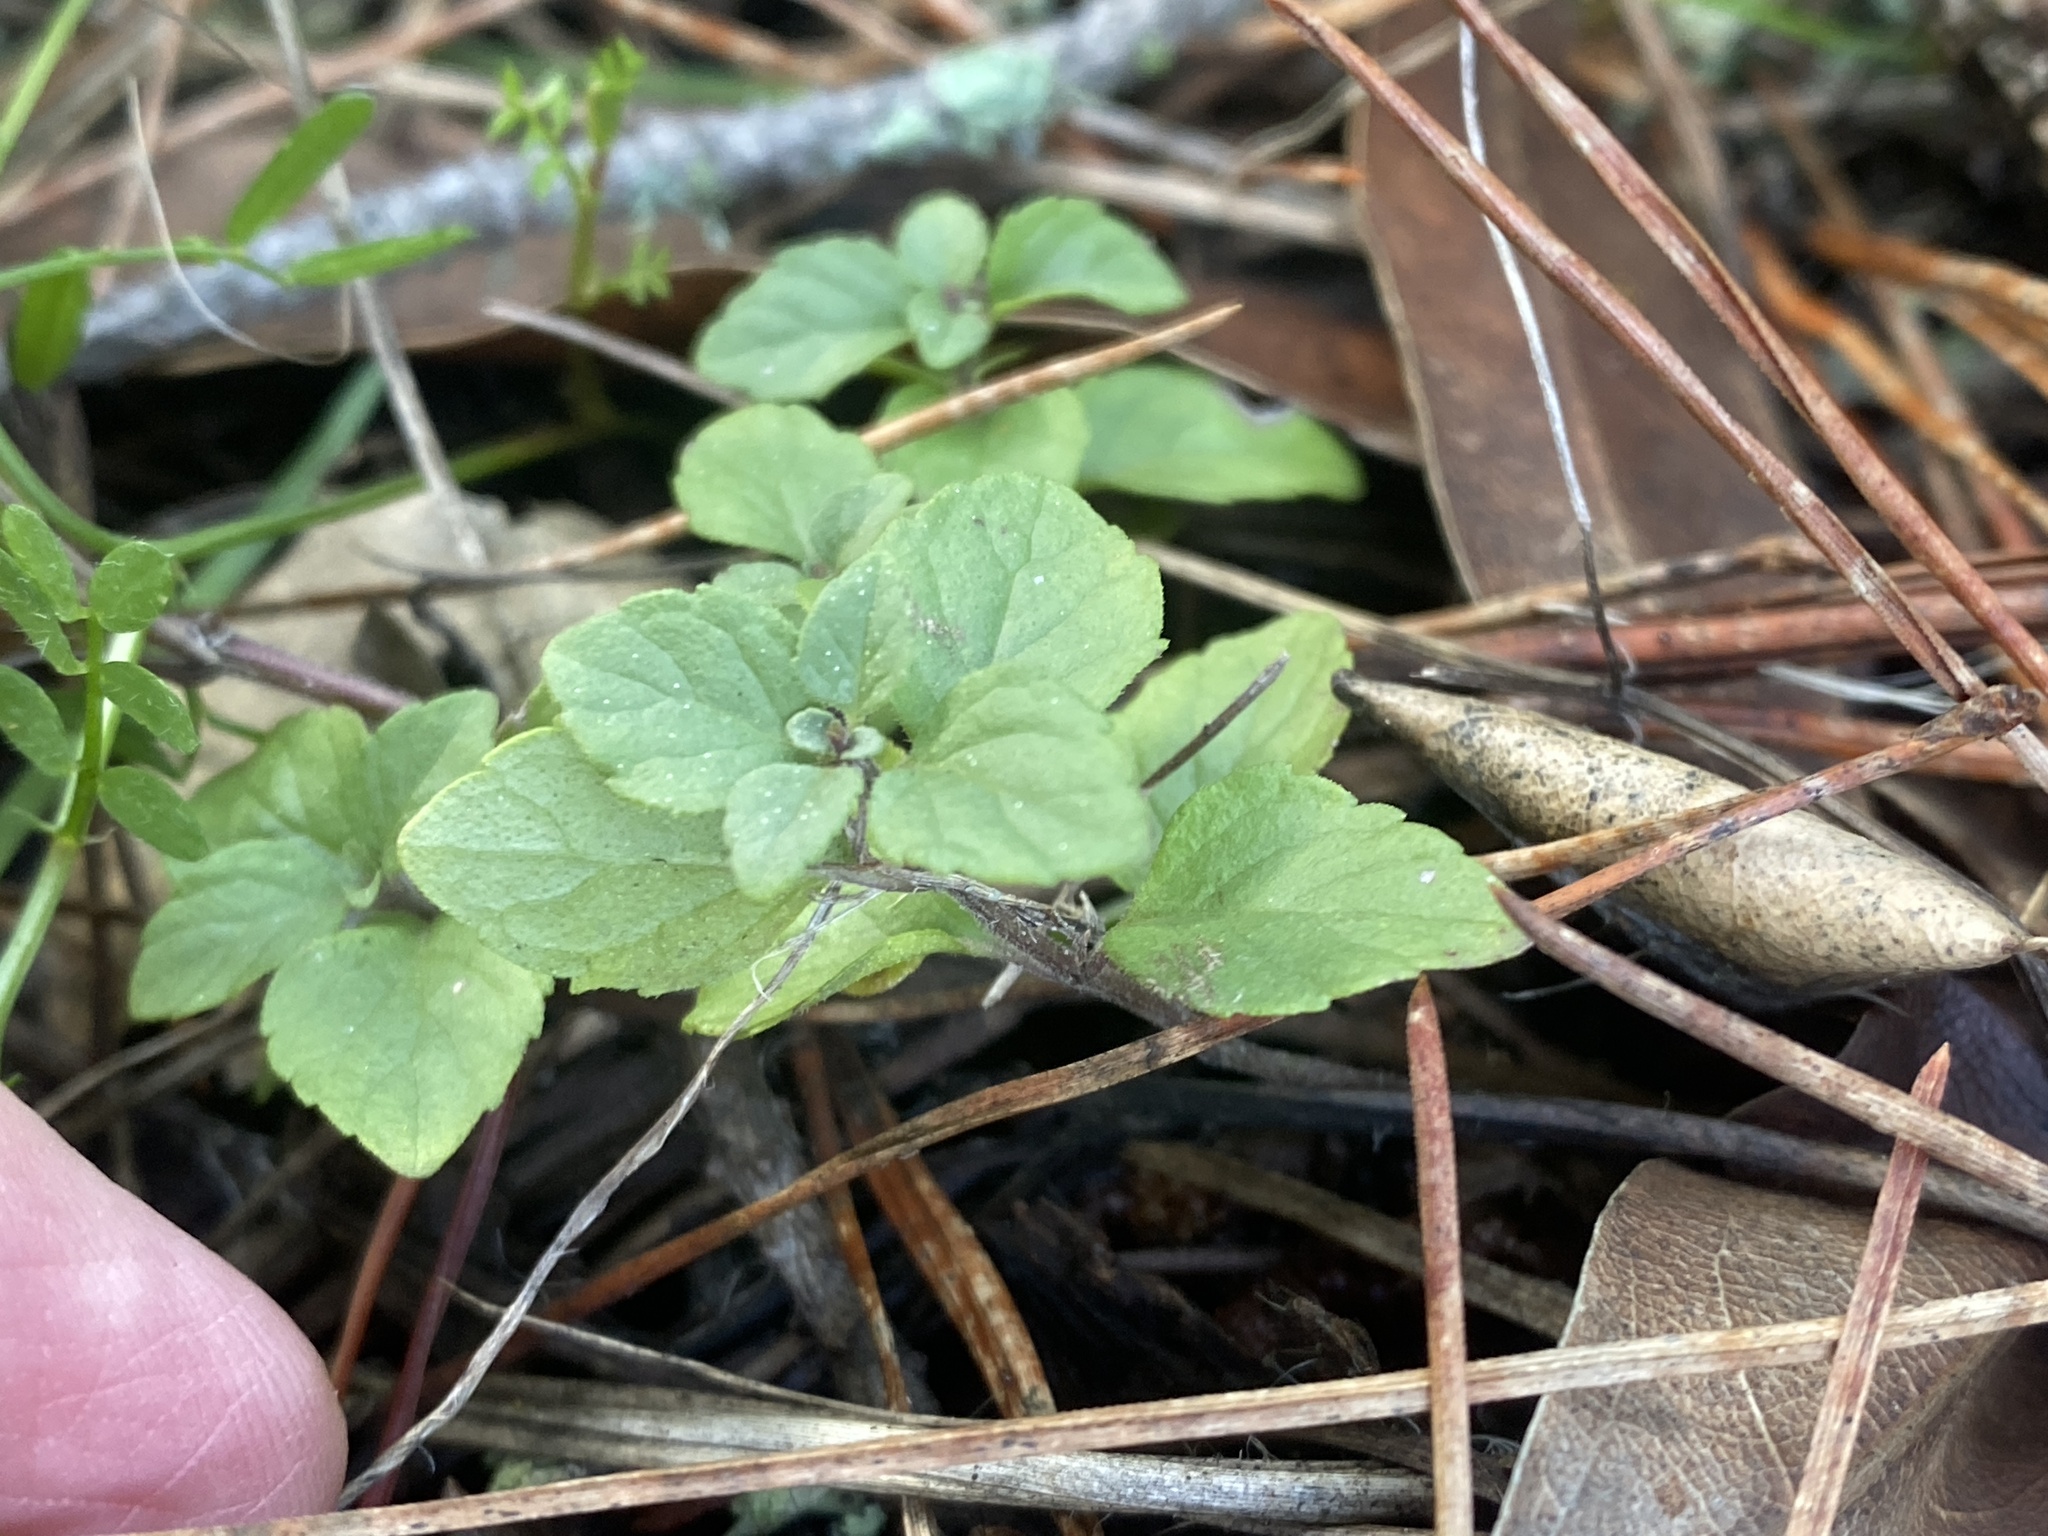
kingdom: Plantae
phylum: Tracheophyta
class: Magnoliopsida
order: Lamiales
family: Lamiaceae
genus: Micromeria
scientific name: Micromeria douglasii
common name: Yerba buena
